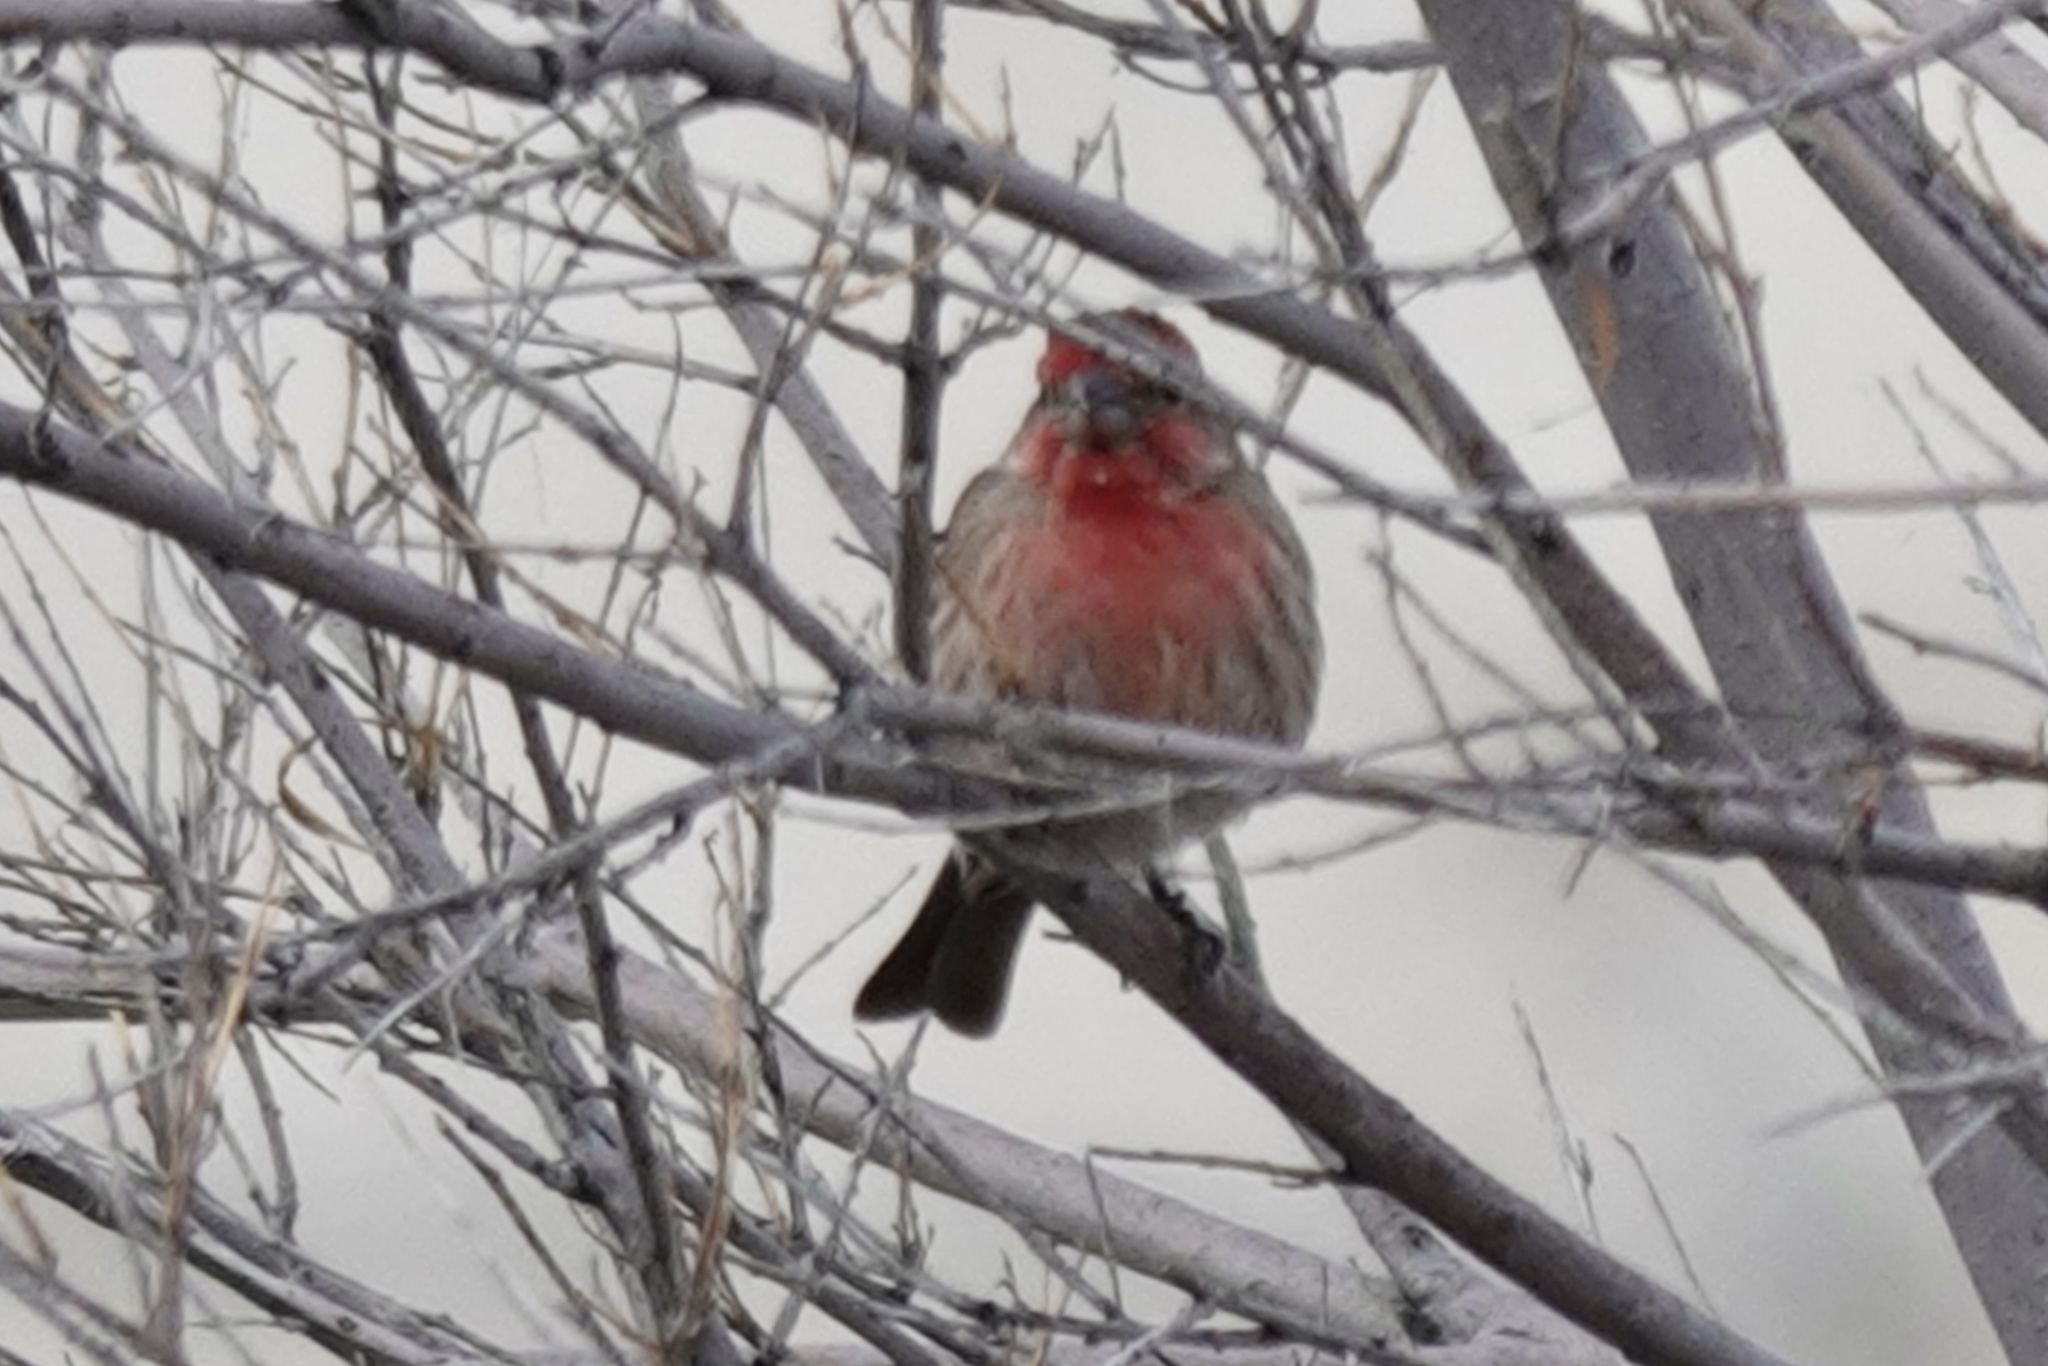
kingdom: Animalia
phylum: Chordata
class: Aves
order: Passeriformes
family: Fringillidae
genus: Haemorhous
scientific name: Haemorhous mexicanus
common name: House finch
